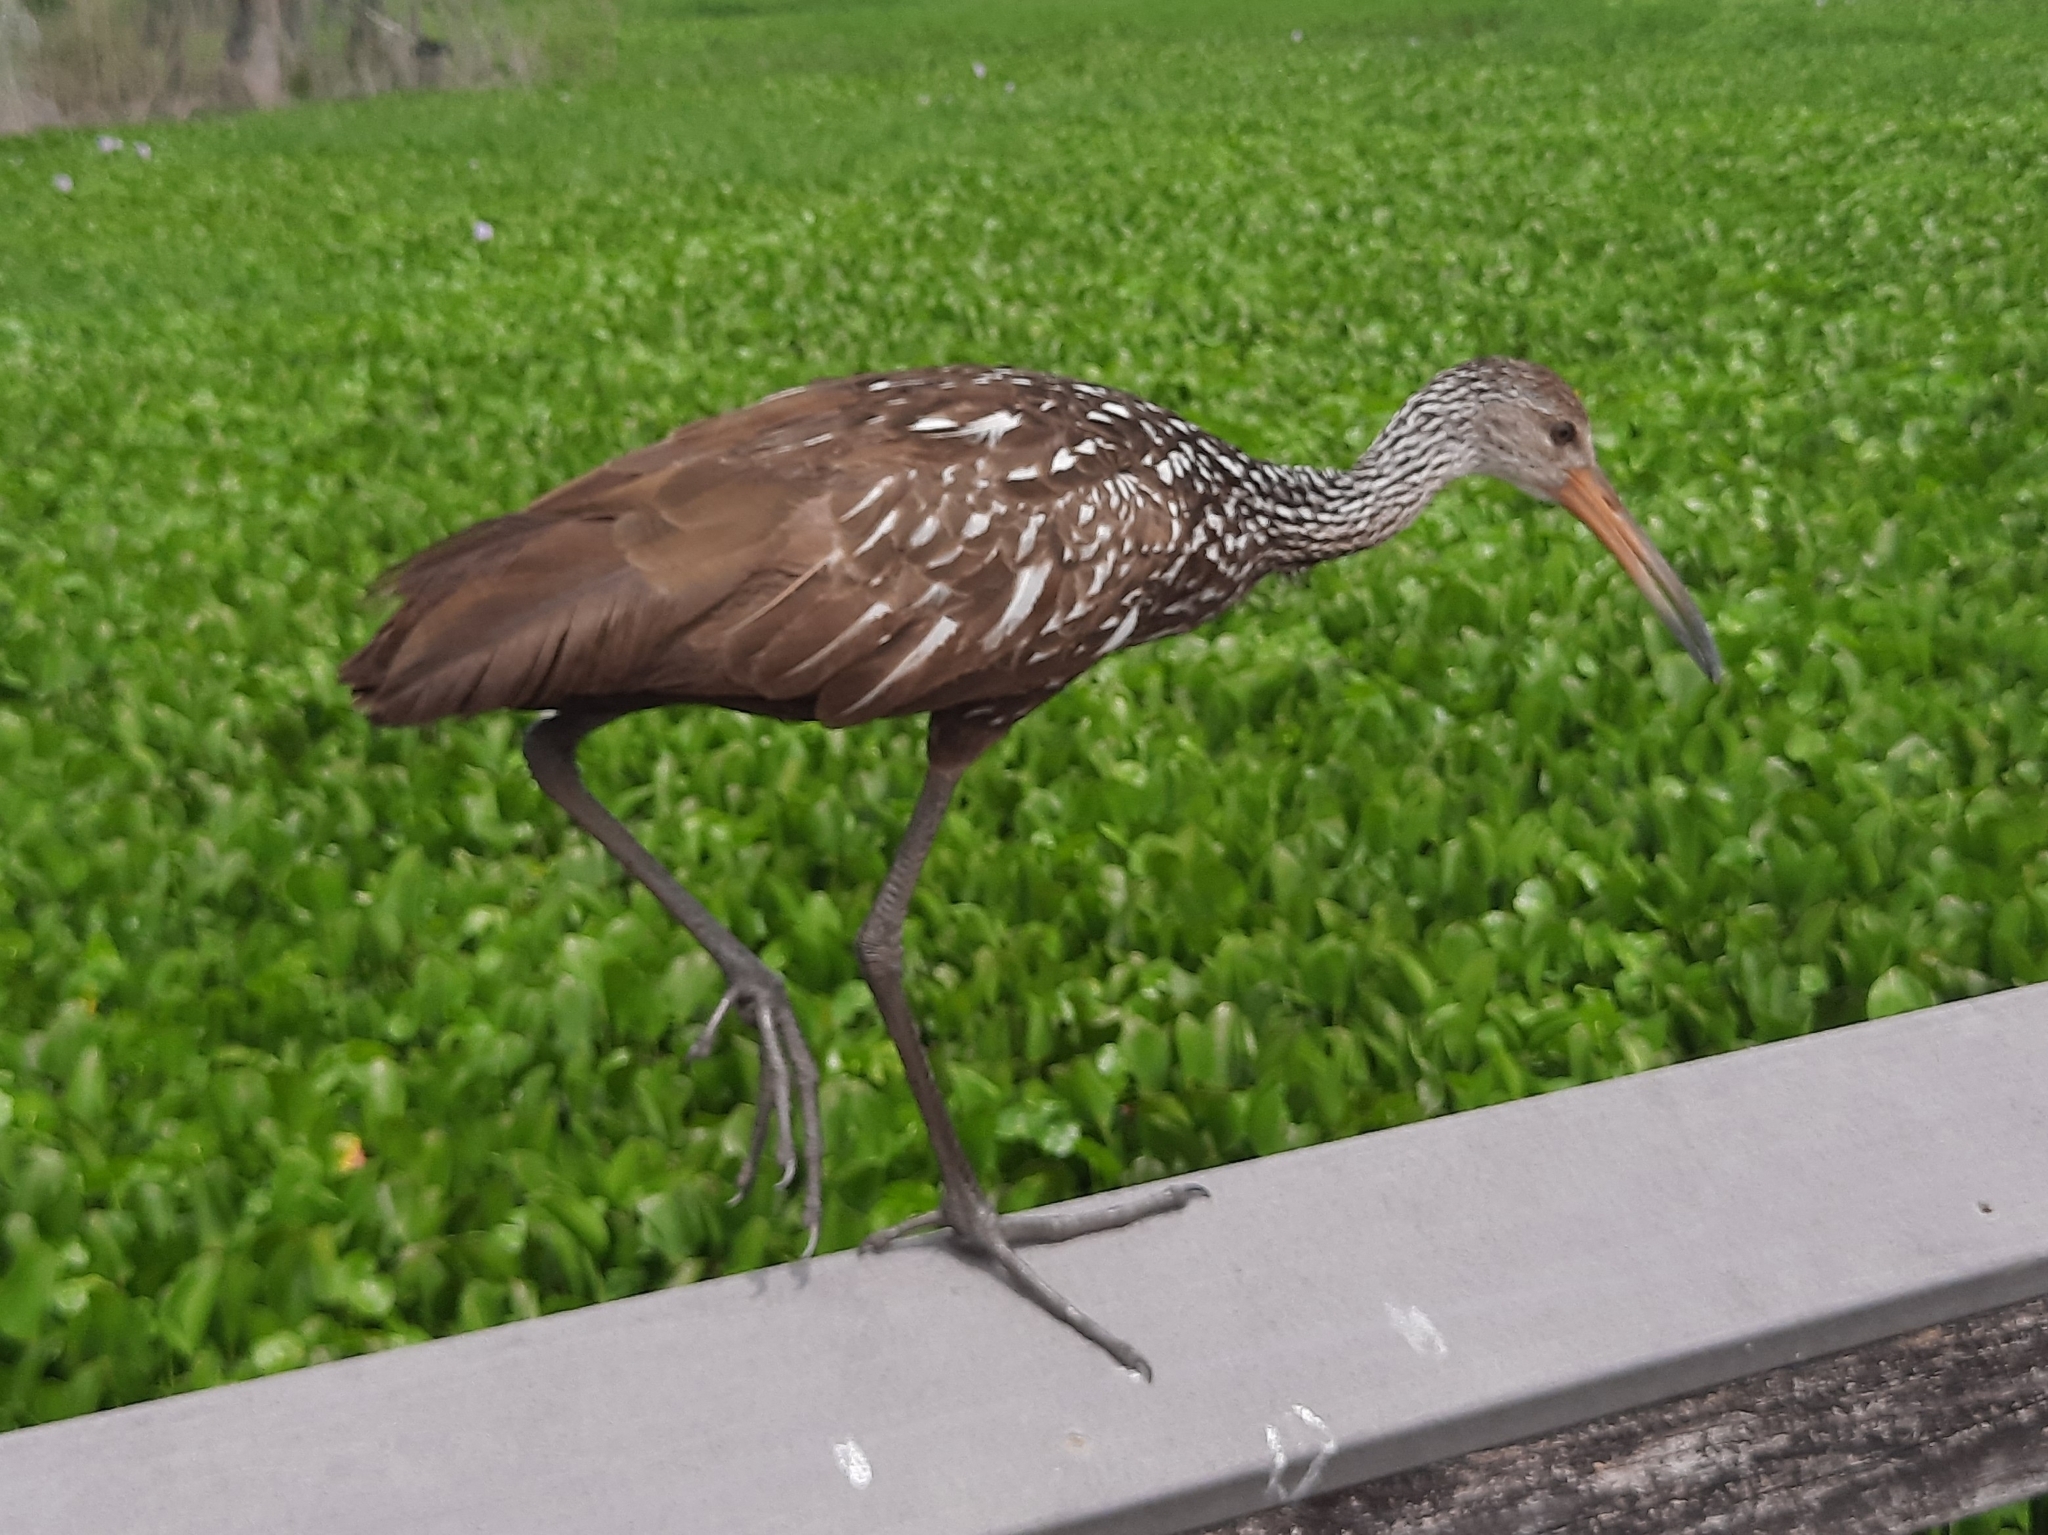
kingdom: Animalia
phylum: Chordata
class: Aves
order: Gruiformes
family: Aramidae
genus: Aramus
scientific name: Aramus guarauna
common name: Limpkin
